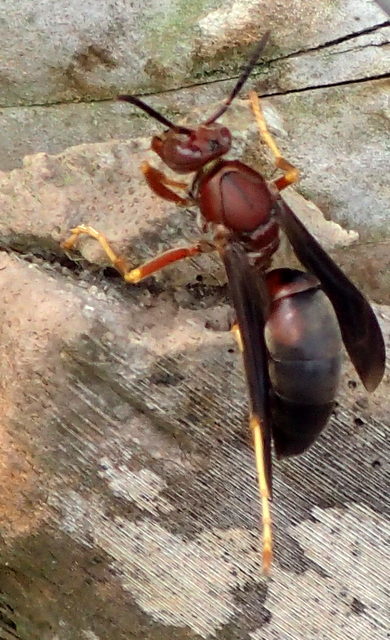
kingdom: Animalia
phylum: Arthropoda
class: Insecta
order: Hymenoptera
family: Eumenidae
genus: Polistes
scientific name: Polistes metricus
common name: Metric paper wasp
